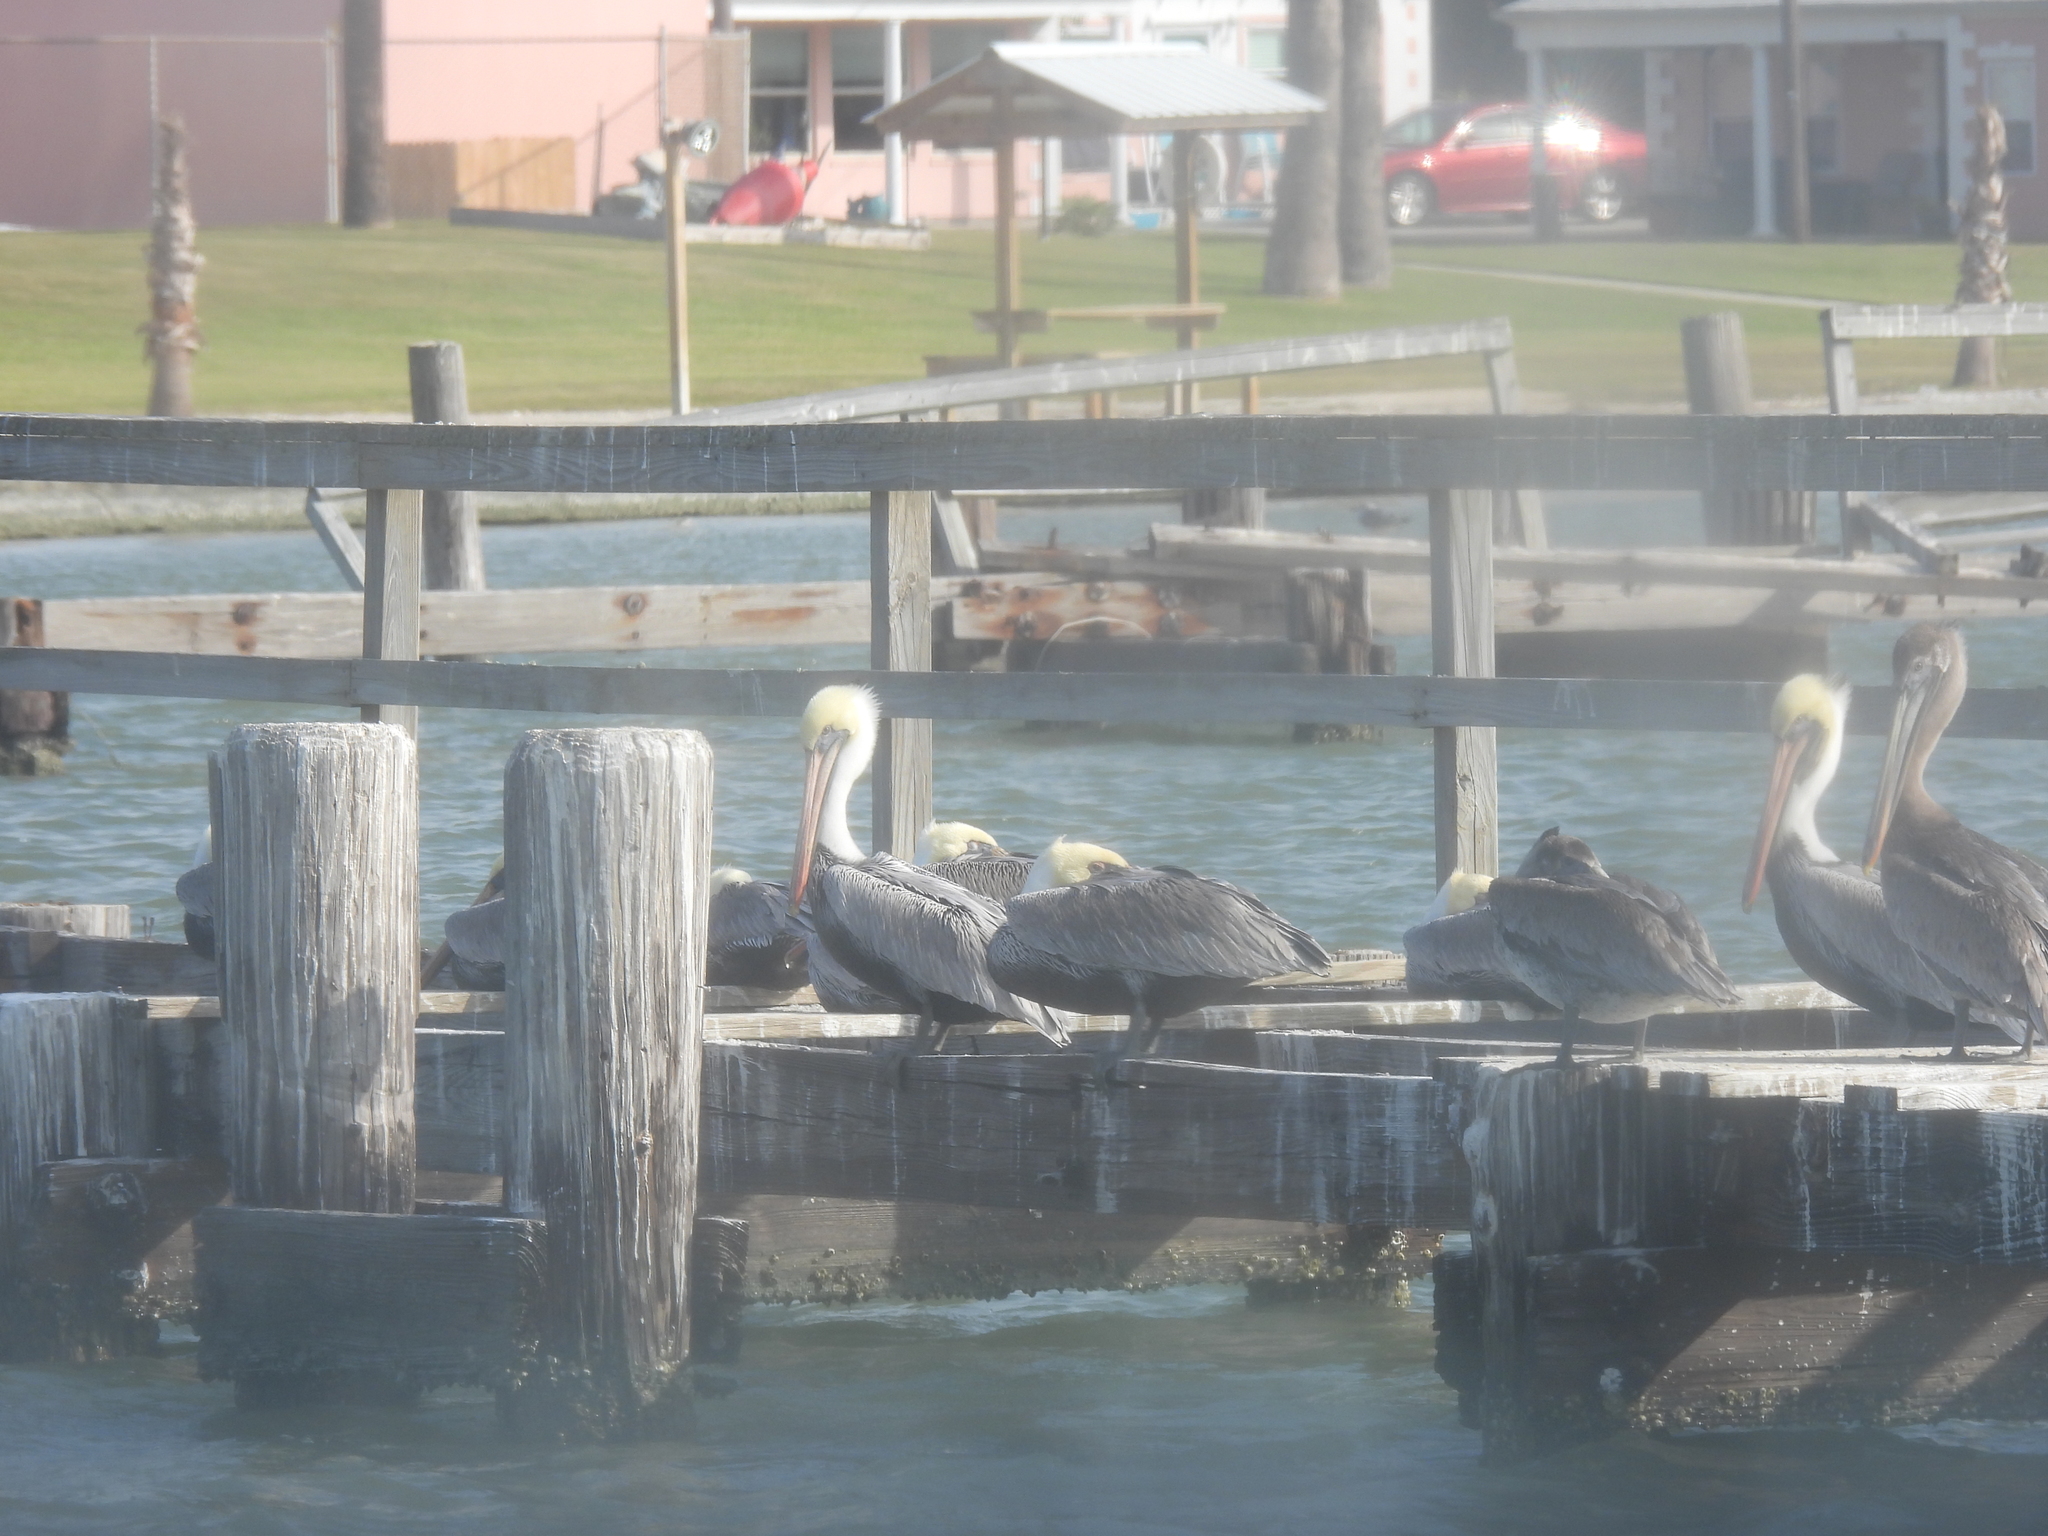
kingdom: Animalia
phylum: Chordata
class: Aves
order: Pelecaniformes
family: Pelecanidae
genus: Pelecanus
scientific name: Pelecanus occidentalis
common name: Brown pelican
